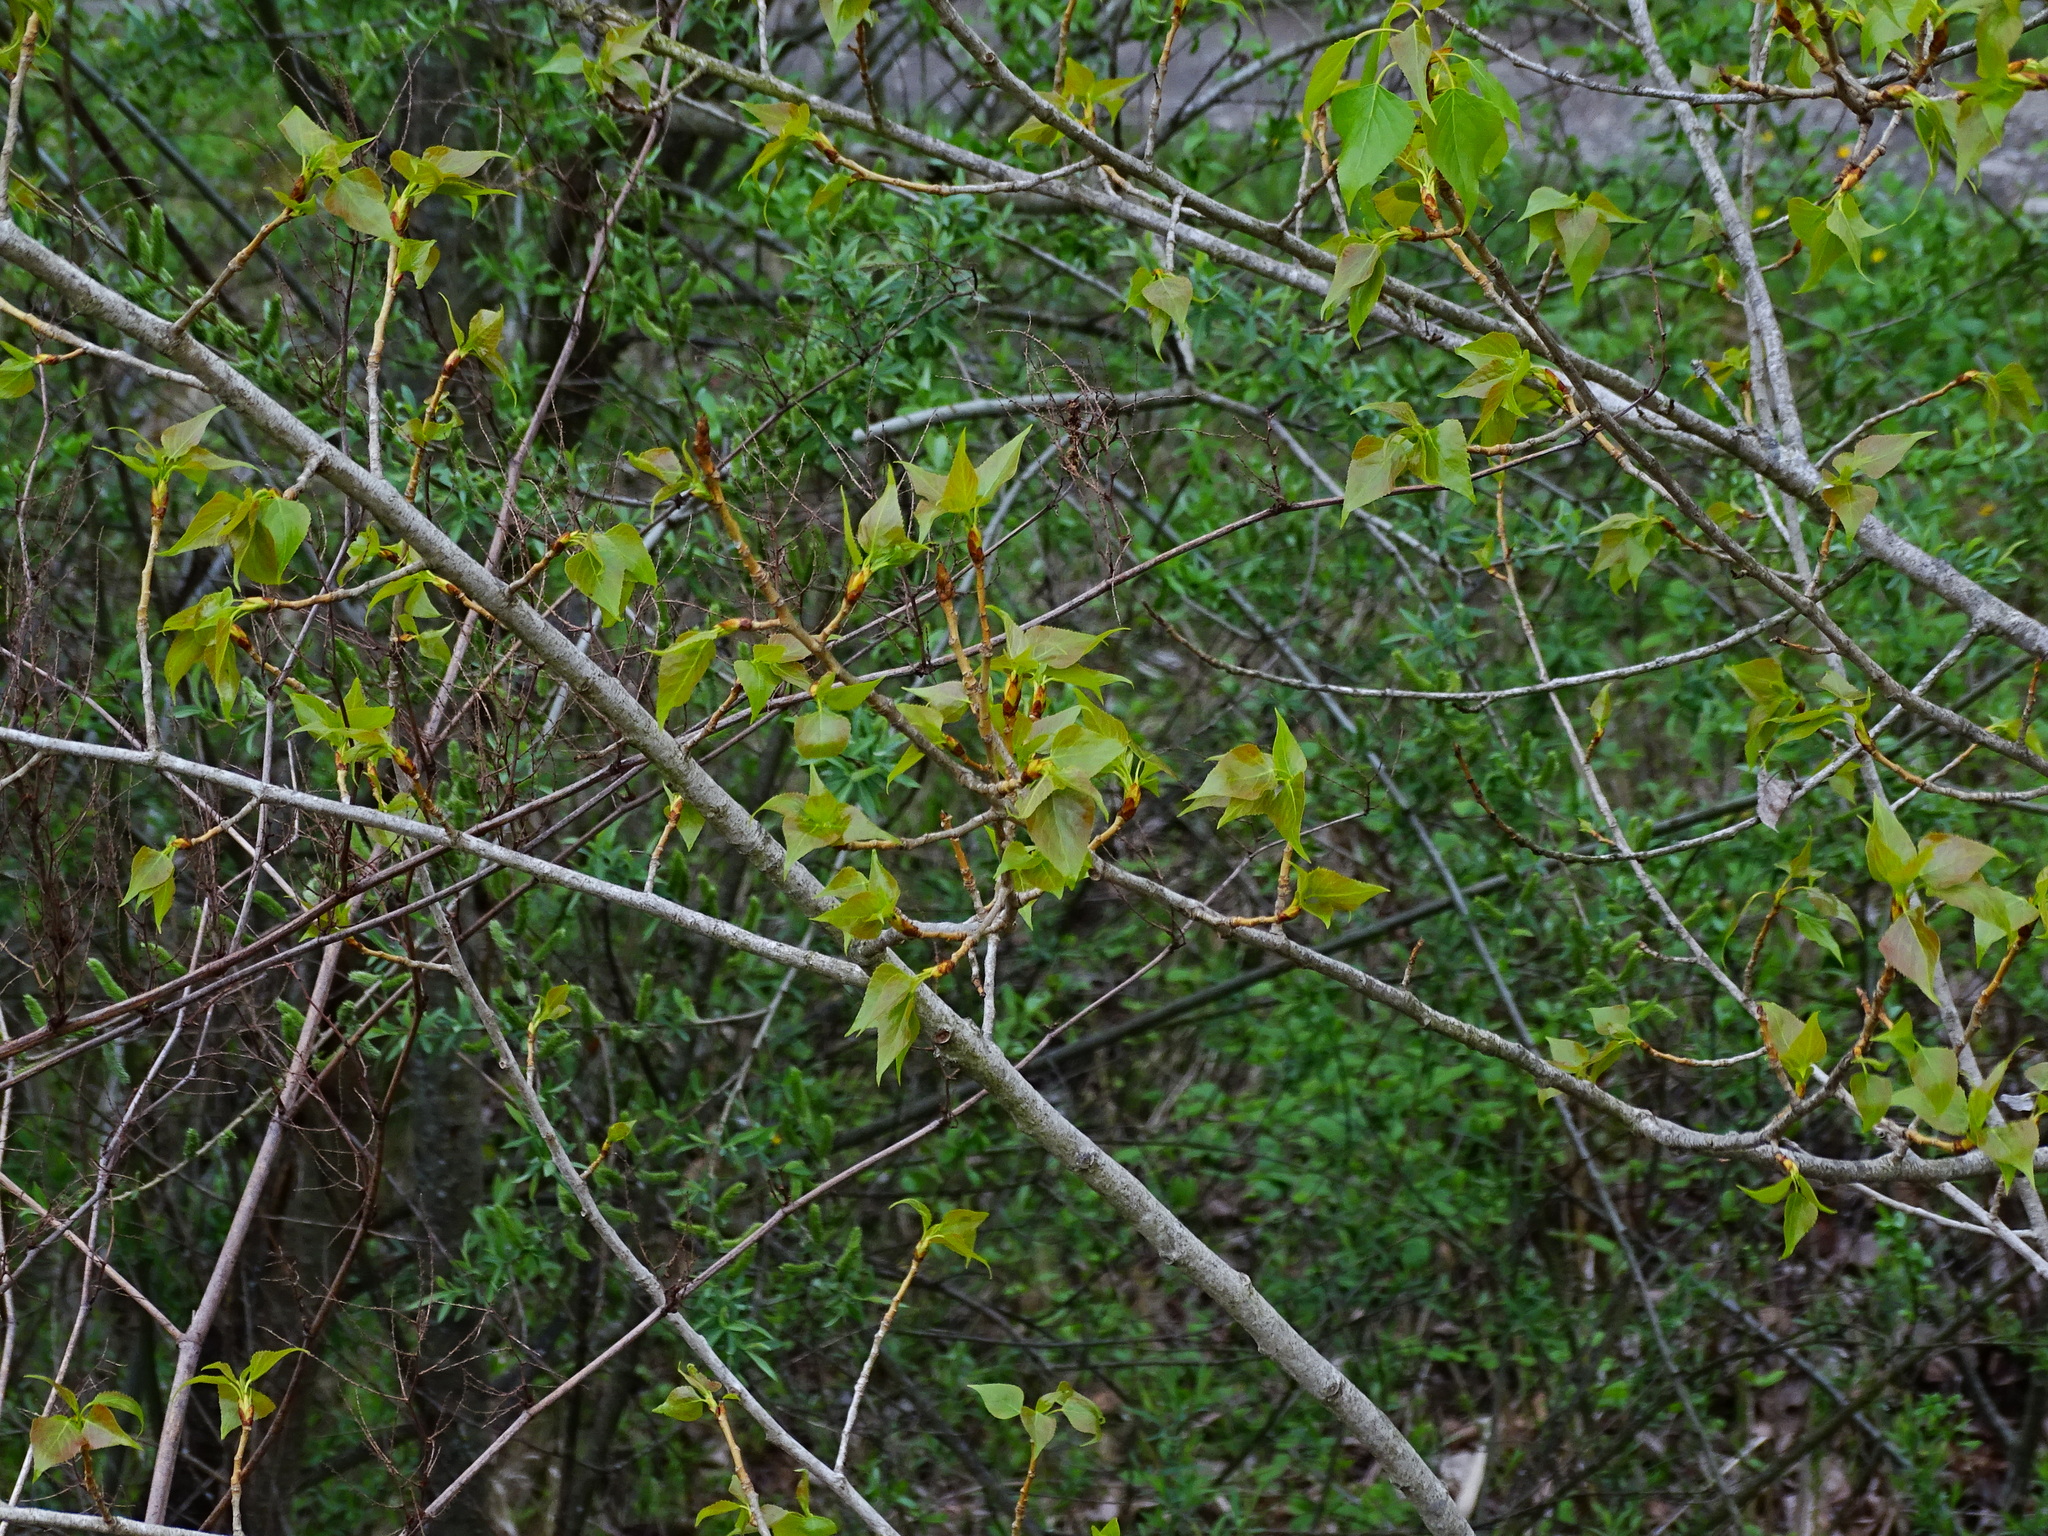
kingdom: Plantae
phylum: Tracheophyta
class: Magnoliopsida
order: Malpighiales
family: Salicaceae
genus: Populus
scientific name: Populus nigra
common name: Black poplar
